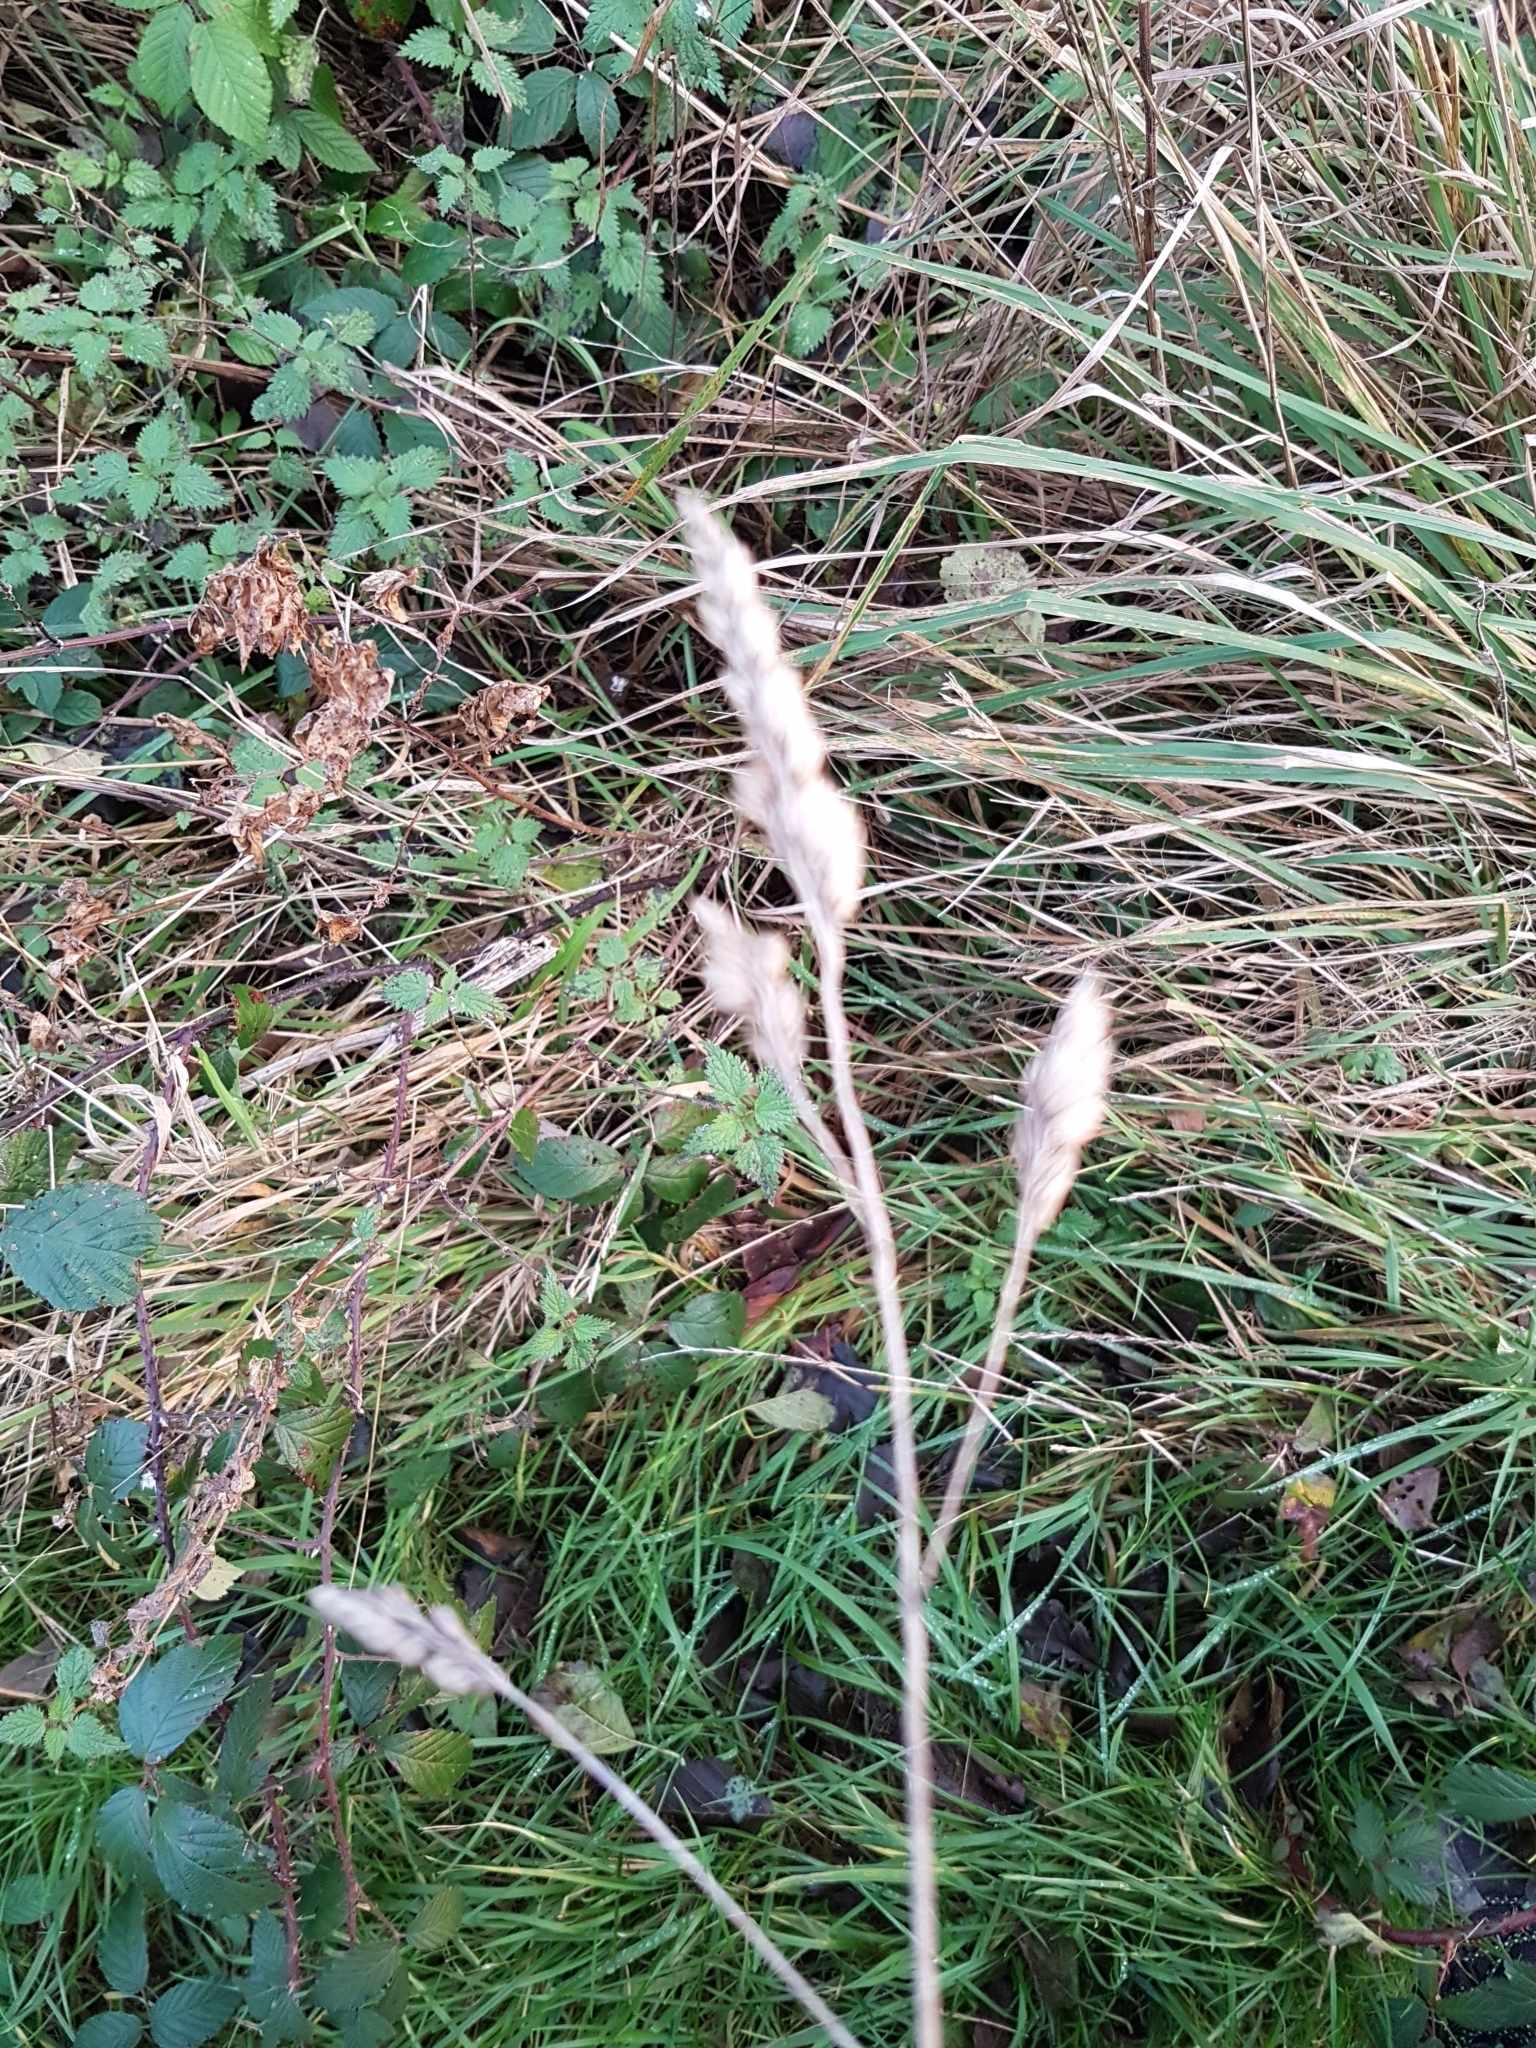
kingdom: Plantae
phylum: Tracheophyta
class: Liliopsida
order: Poales
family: Poaceae
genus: Dactylis
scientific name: Dactylis glomerata
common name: Orchardgrass
